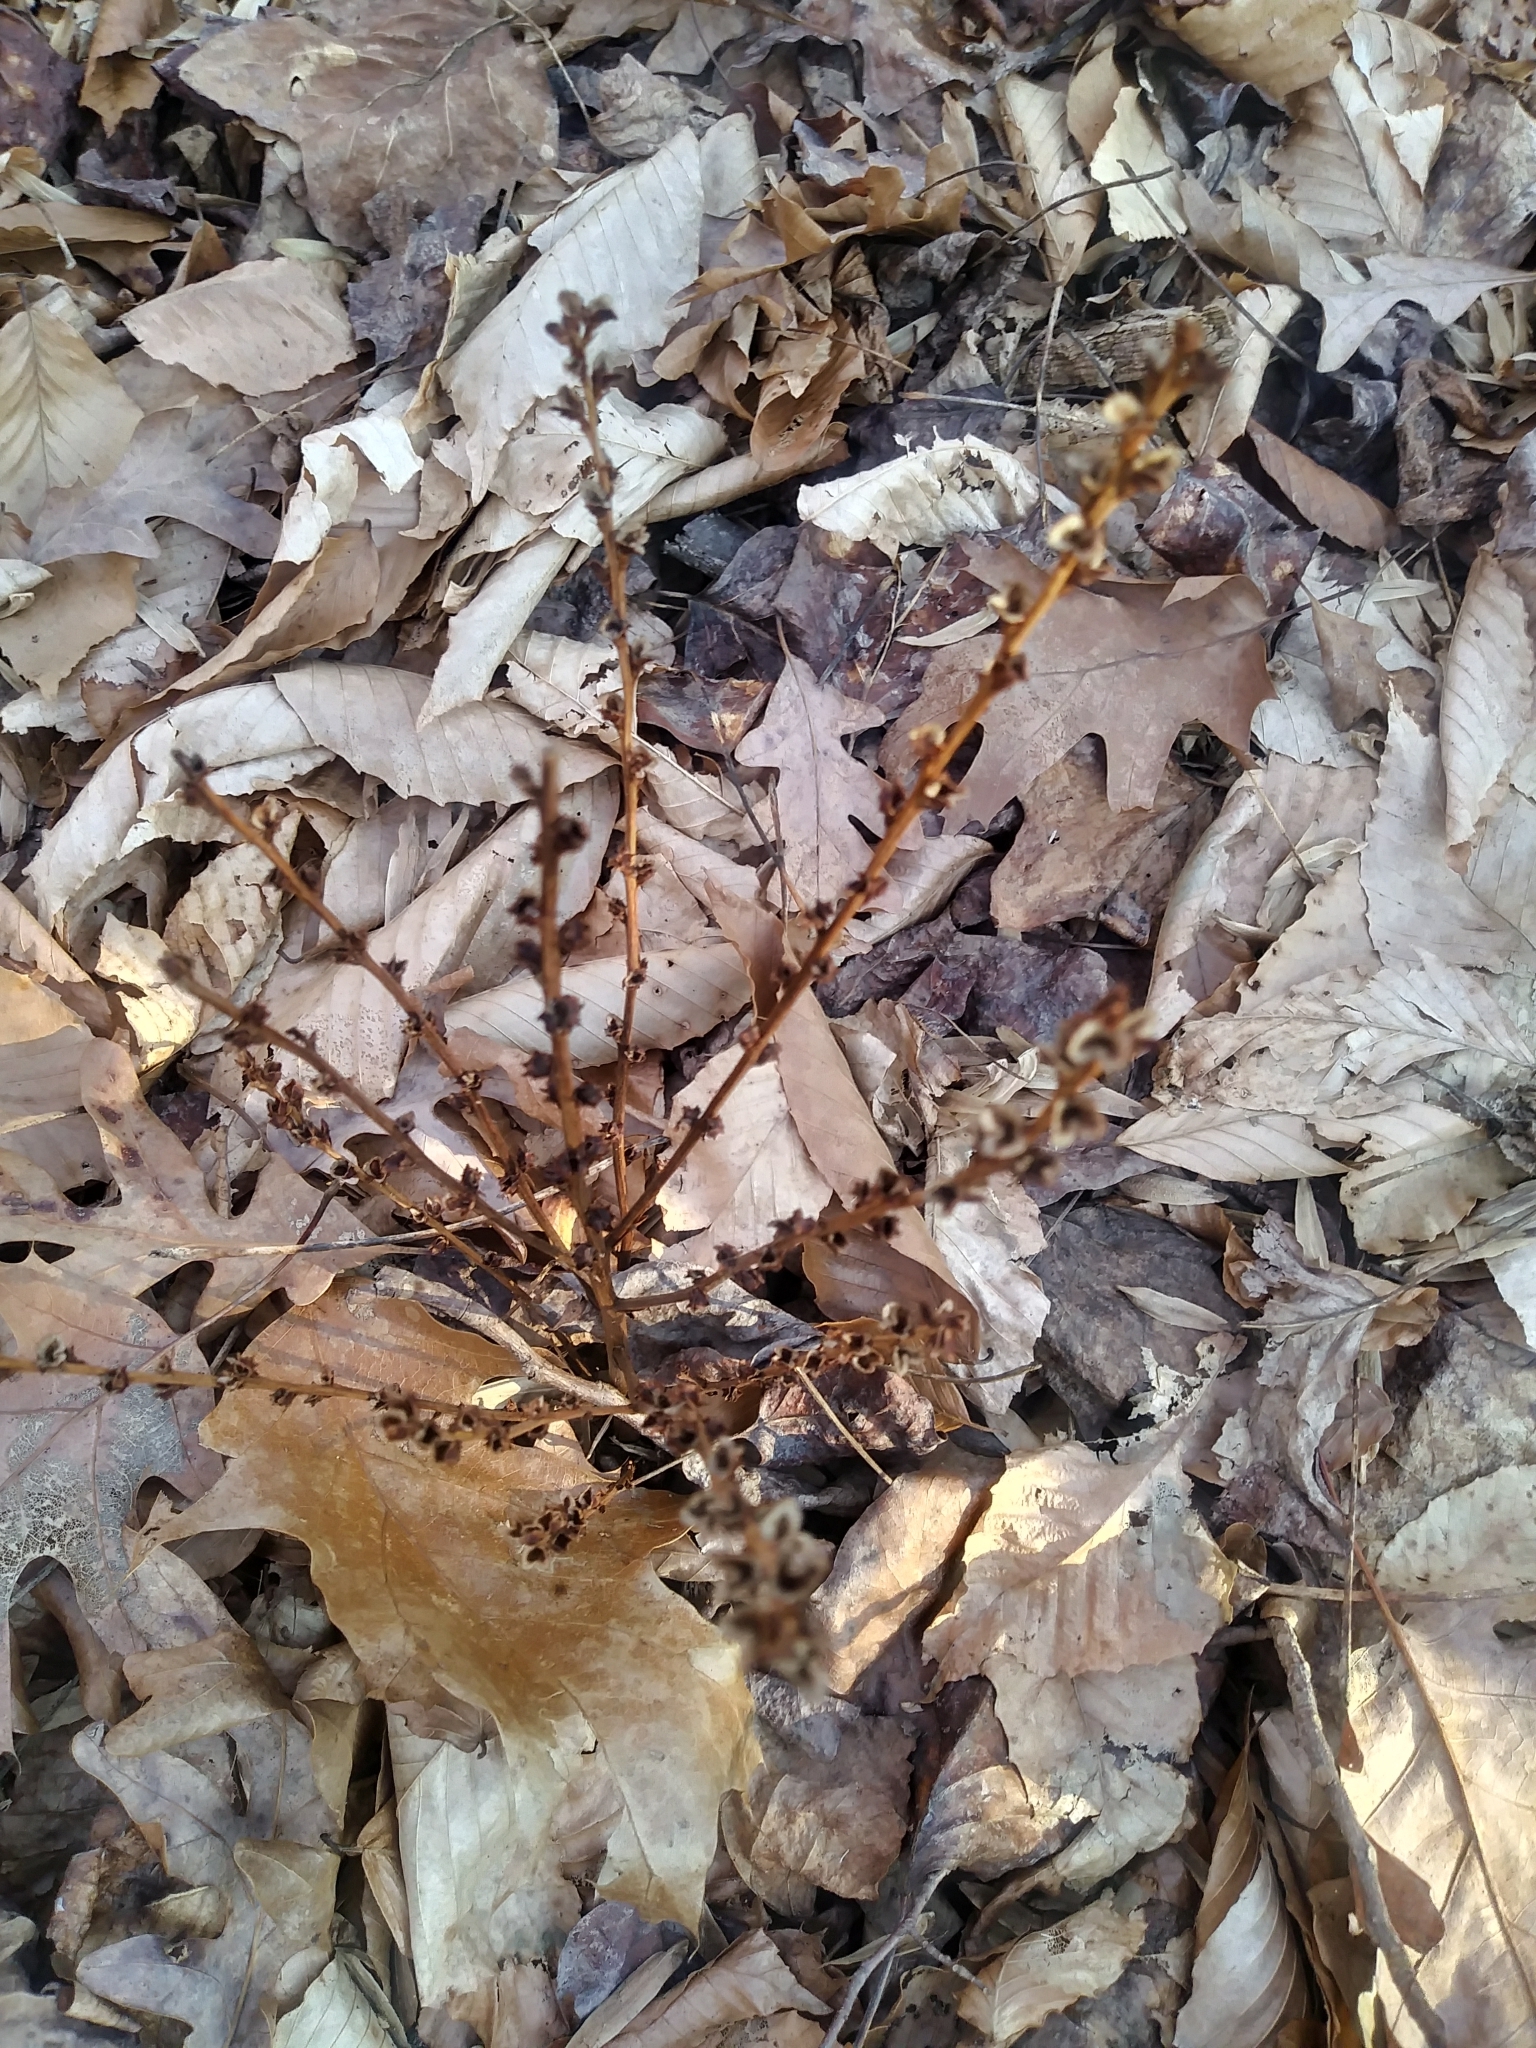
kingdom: Plantae
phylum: Tracheophyta
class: Magnoliopsida
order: Lamiales
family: Orobanchaceae
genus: Epifagus
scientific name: Epifagus virginiana
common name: Beechdrops
